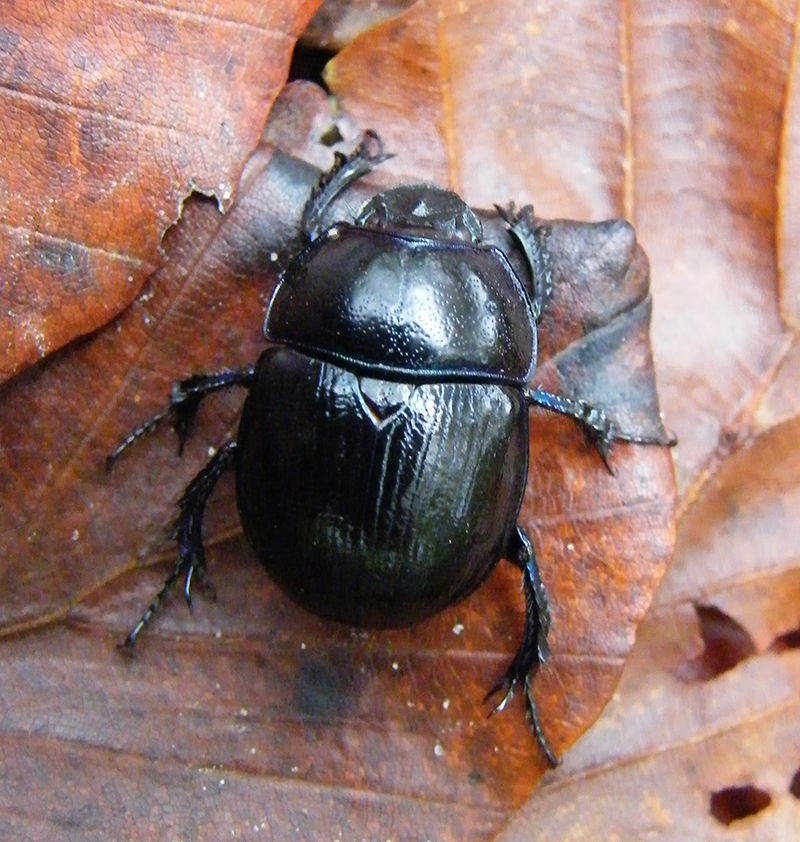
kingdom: Animalia
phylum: Arthropoda
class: Insecta
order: Coleoptera
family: Geotrupidae
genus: Anoplotrupes
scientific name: Anoplotrupes stercorosus
